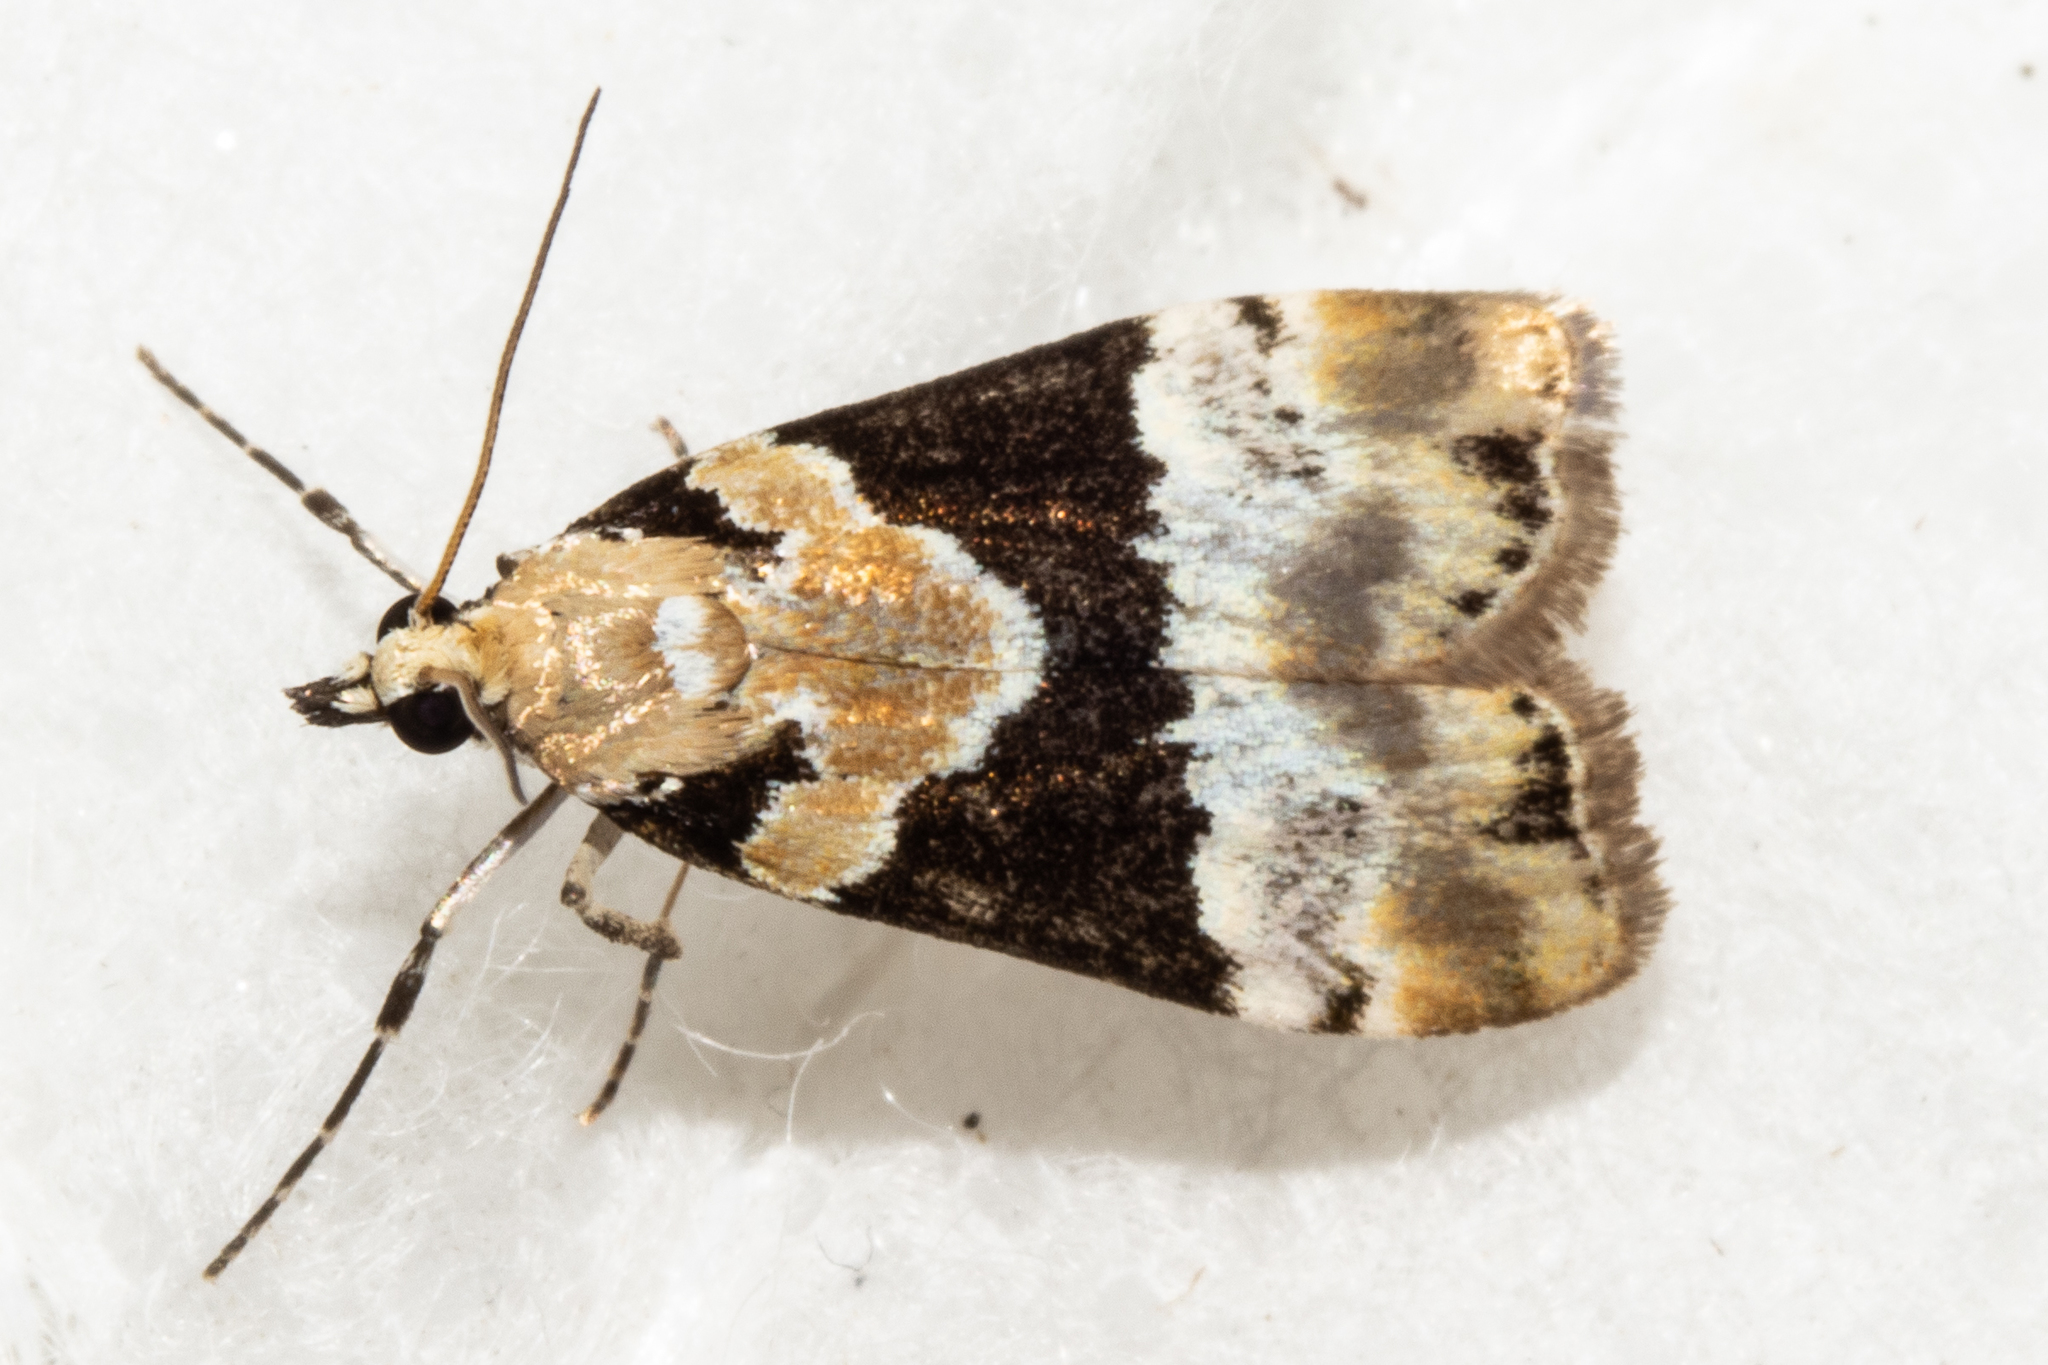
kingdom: Animalia
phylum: Arthropoda
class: Insecta
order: Lepidoptera
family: Crambidae
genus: Eudonia
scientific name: Eudonia aspidota
